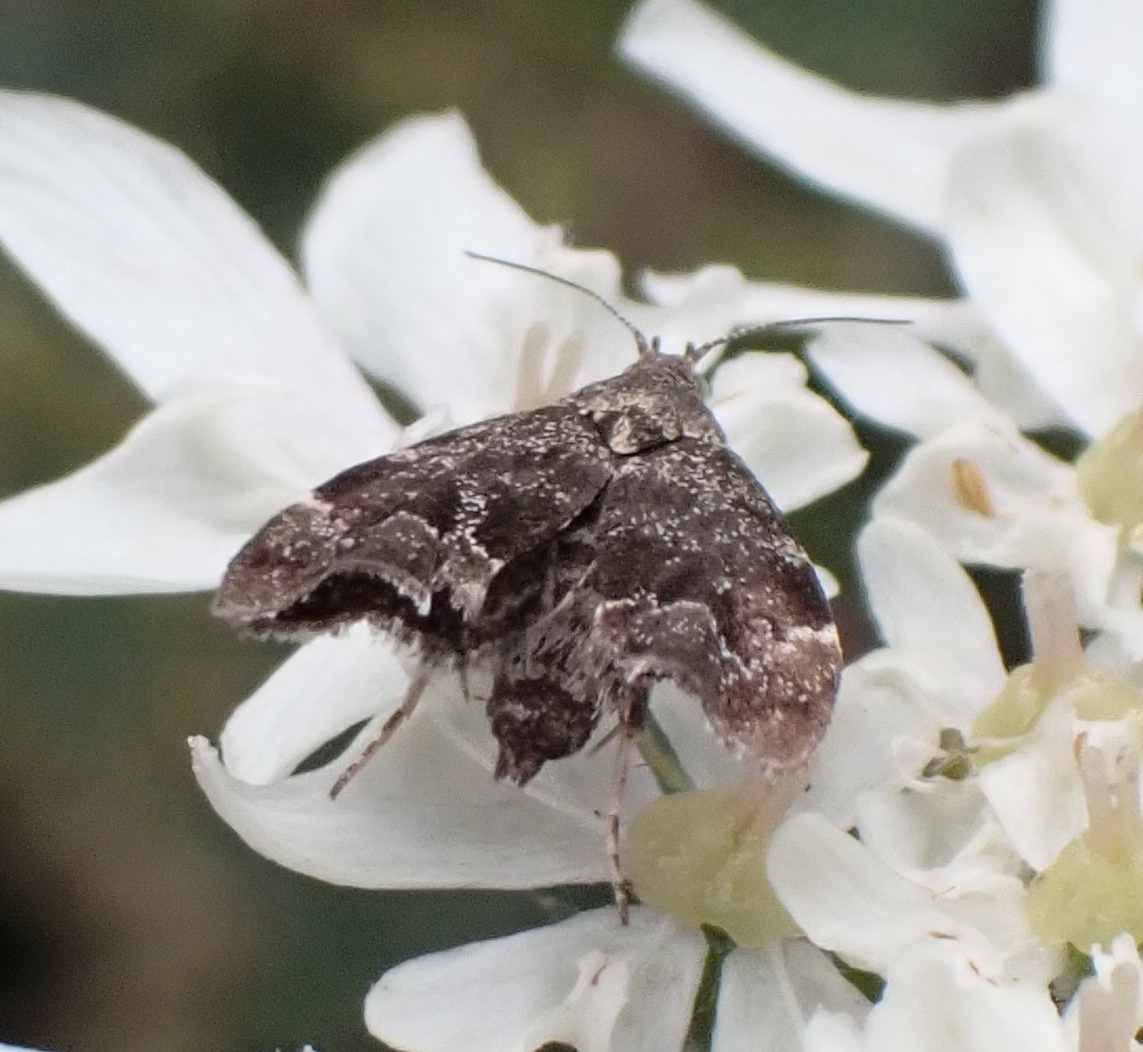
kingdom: Animalia
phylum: Arthropoda
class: Insecta
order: Lepidoptera
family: Choreutidae
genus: Anthophila
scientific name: Anthophila fabriciana
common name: Nettle-tap
